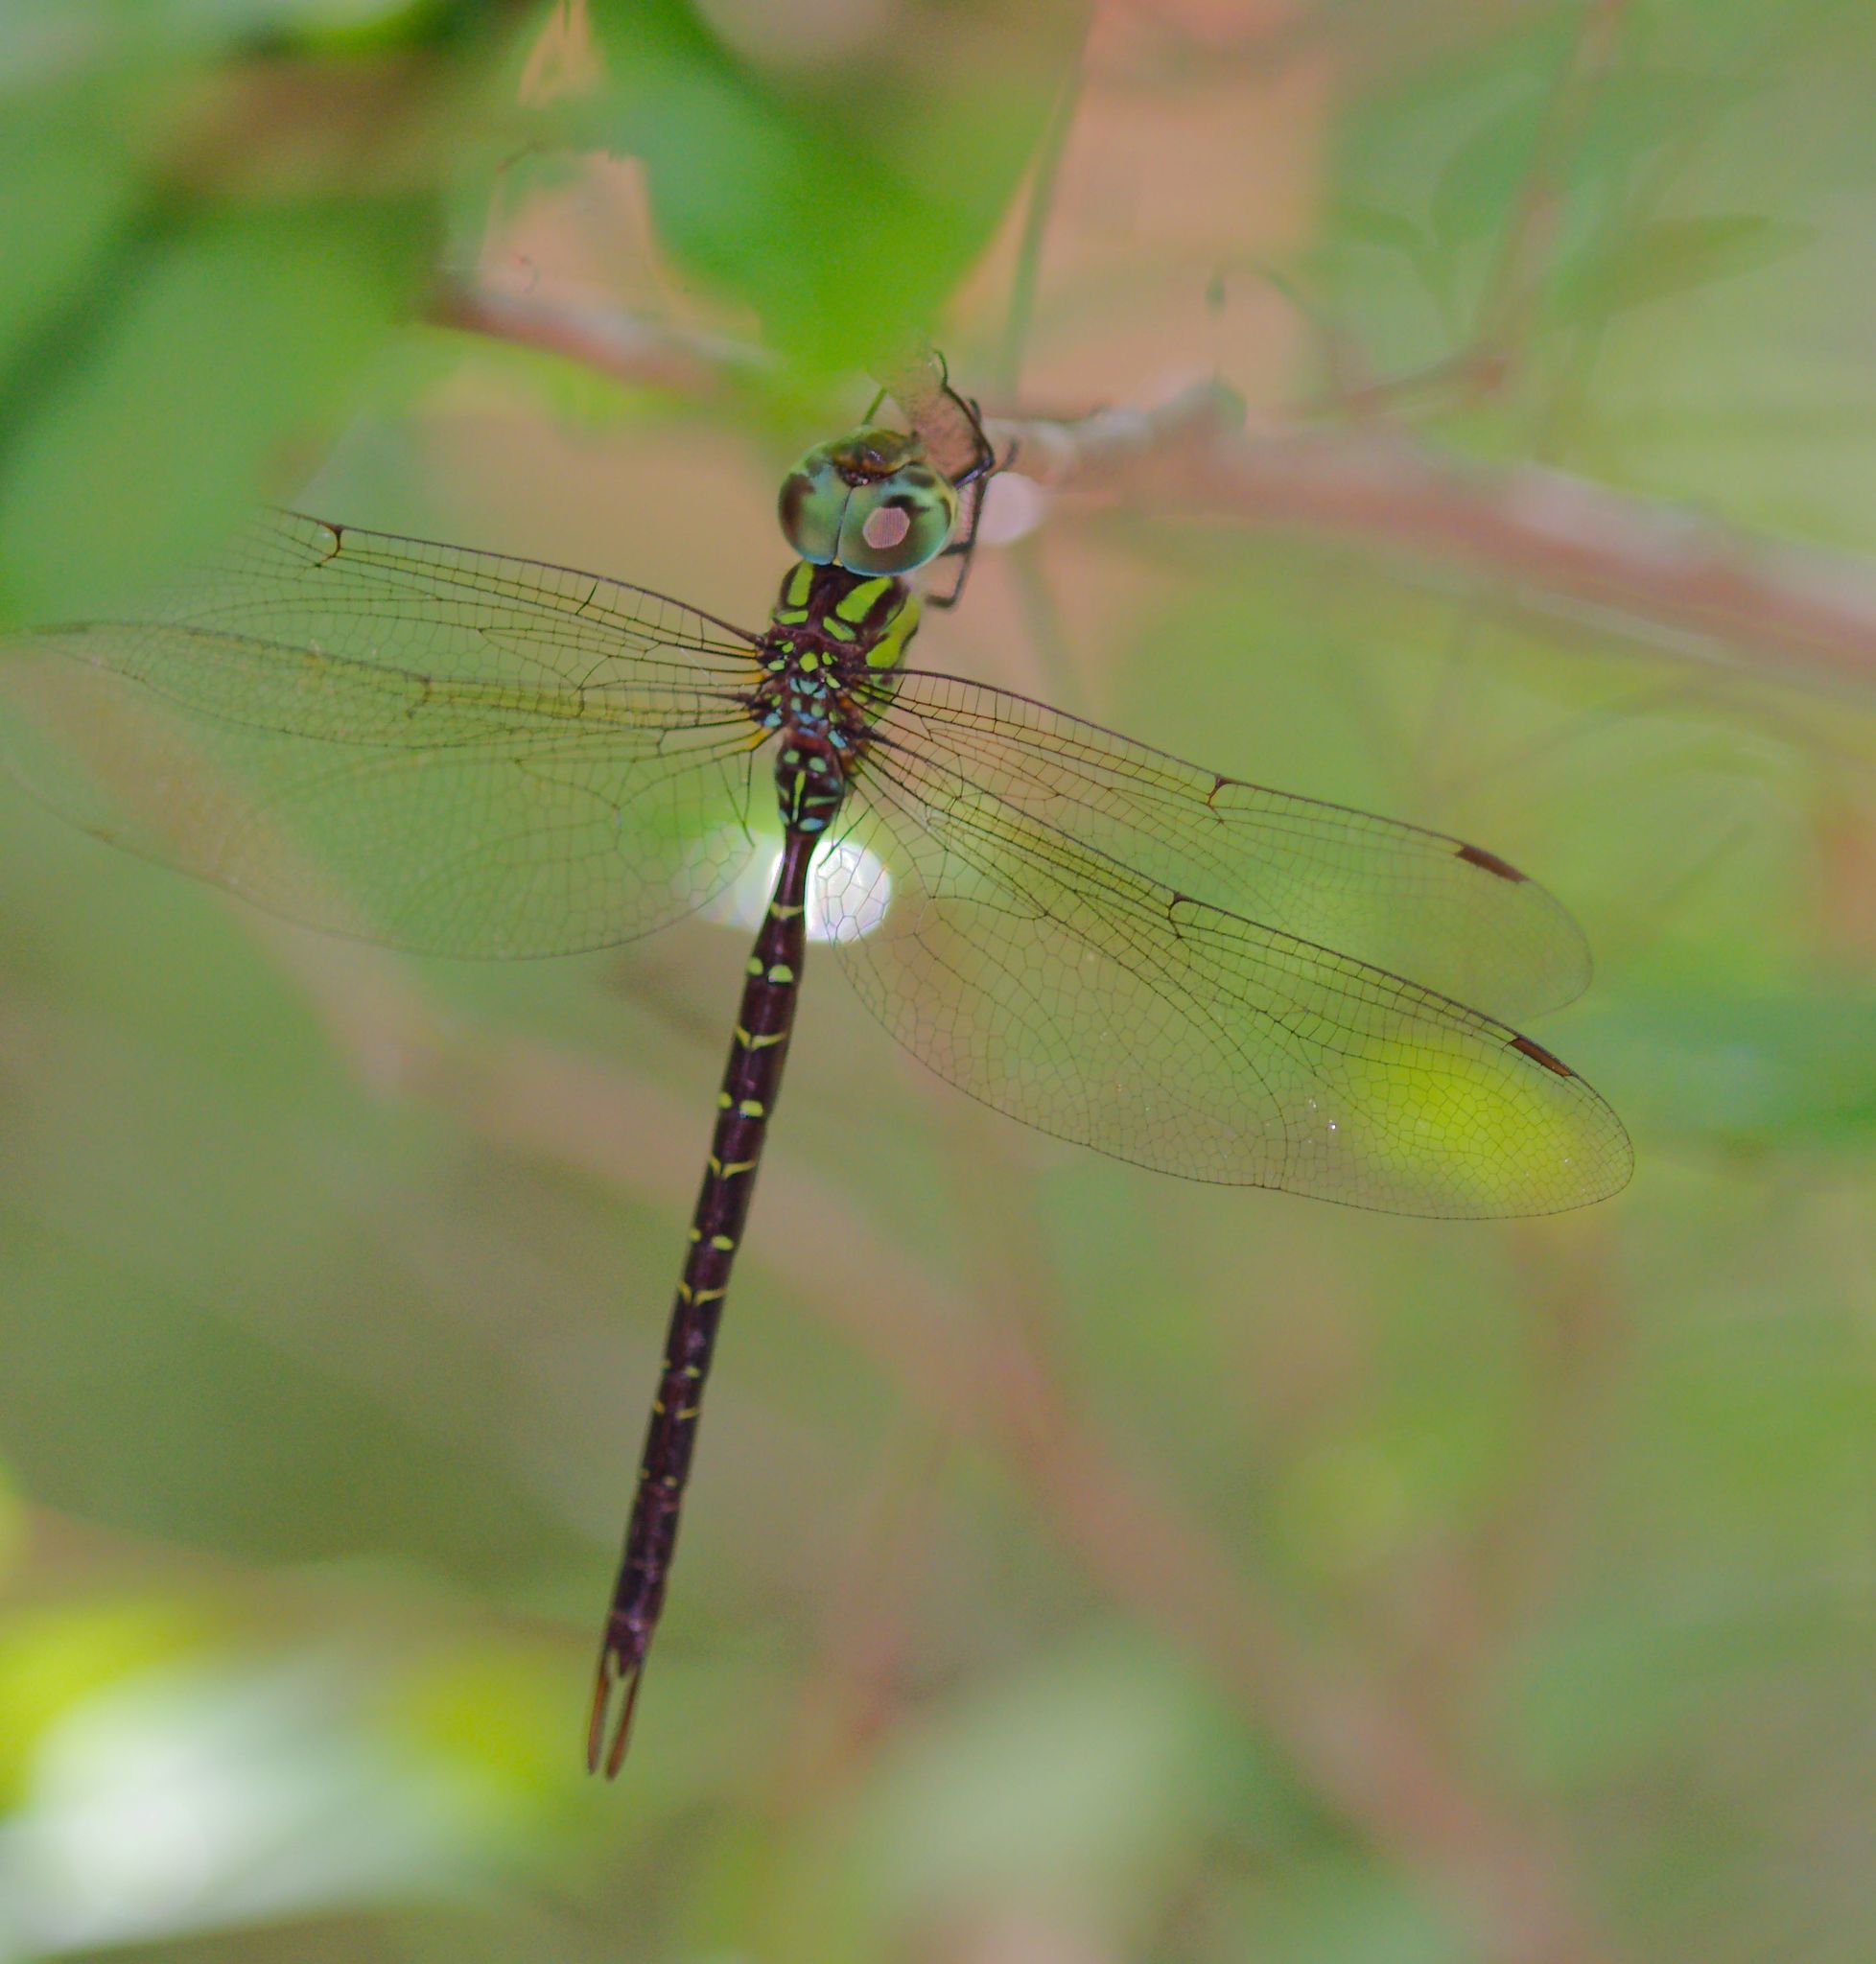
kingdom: Animalia
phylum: Arthropoda
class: Insecta
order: Odonata
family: Aeshnidae
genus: Triacanthagyna
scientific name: Triacanthagyna trifida
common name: Phantom darner
